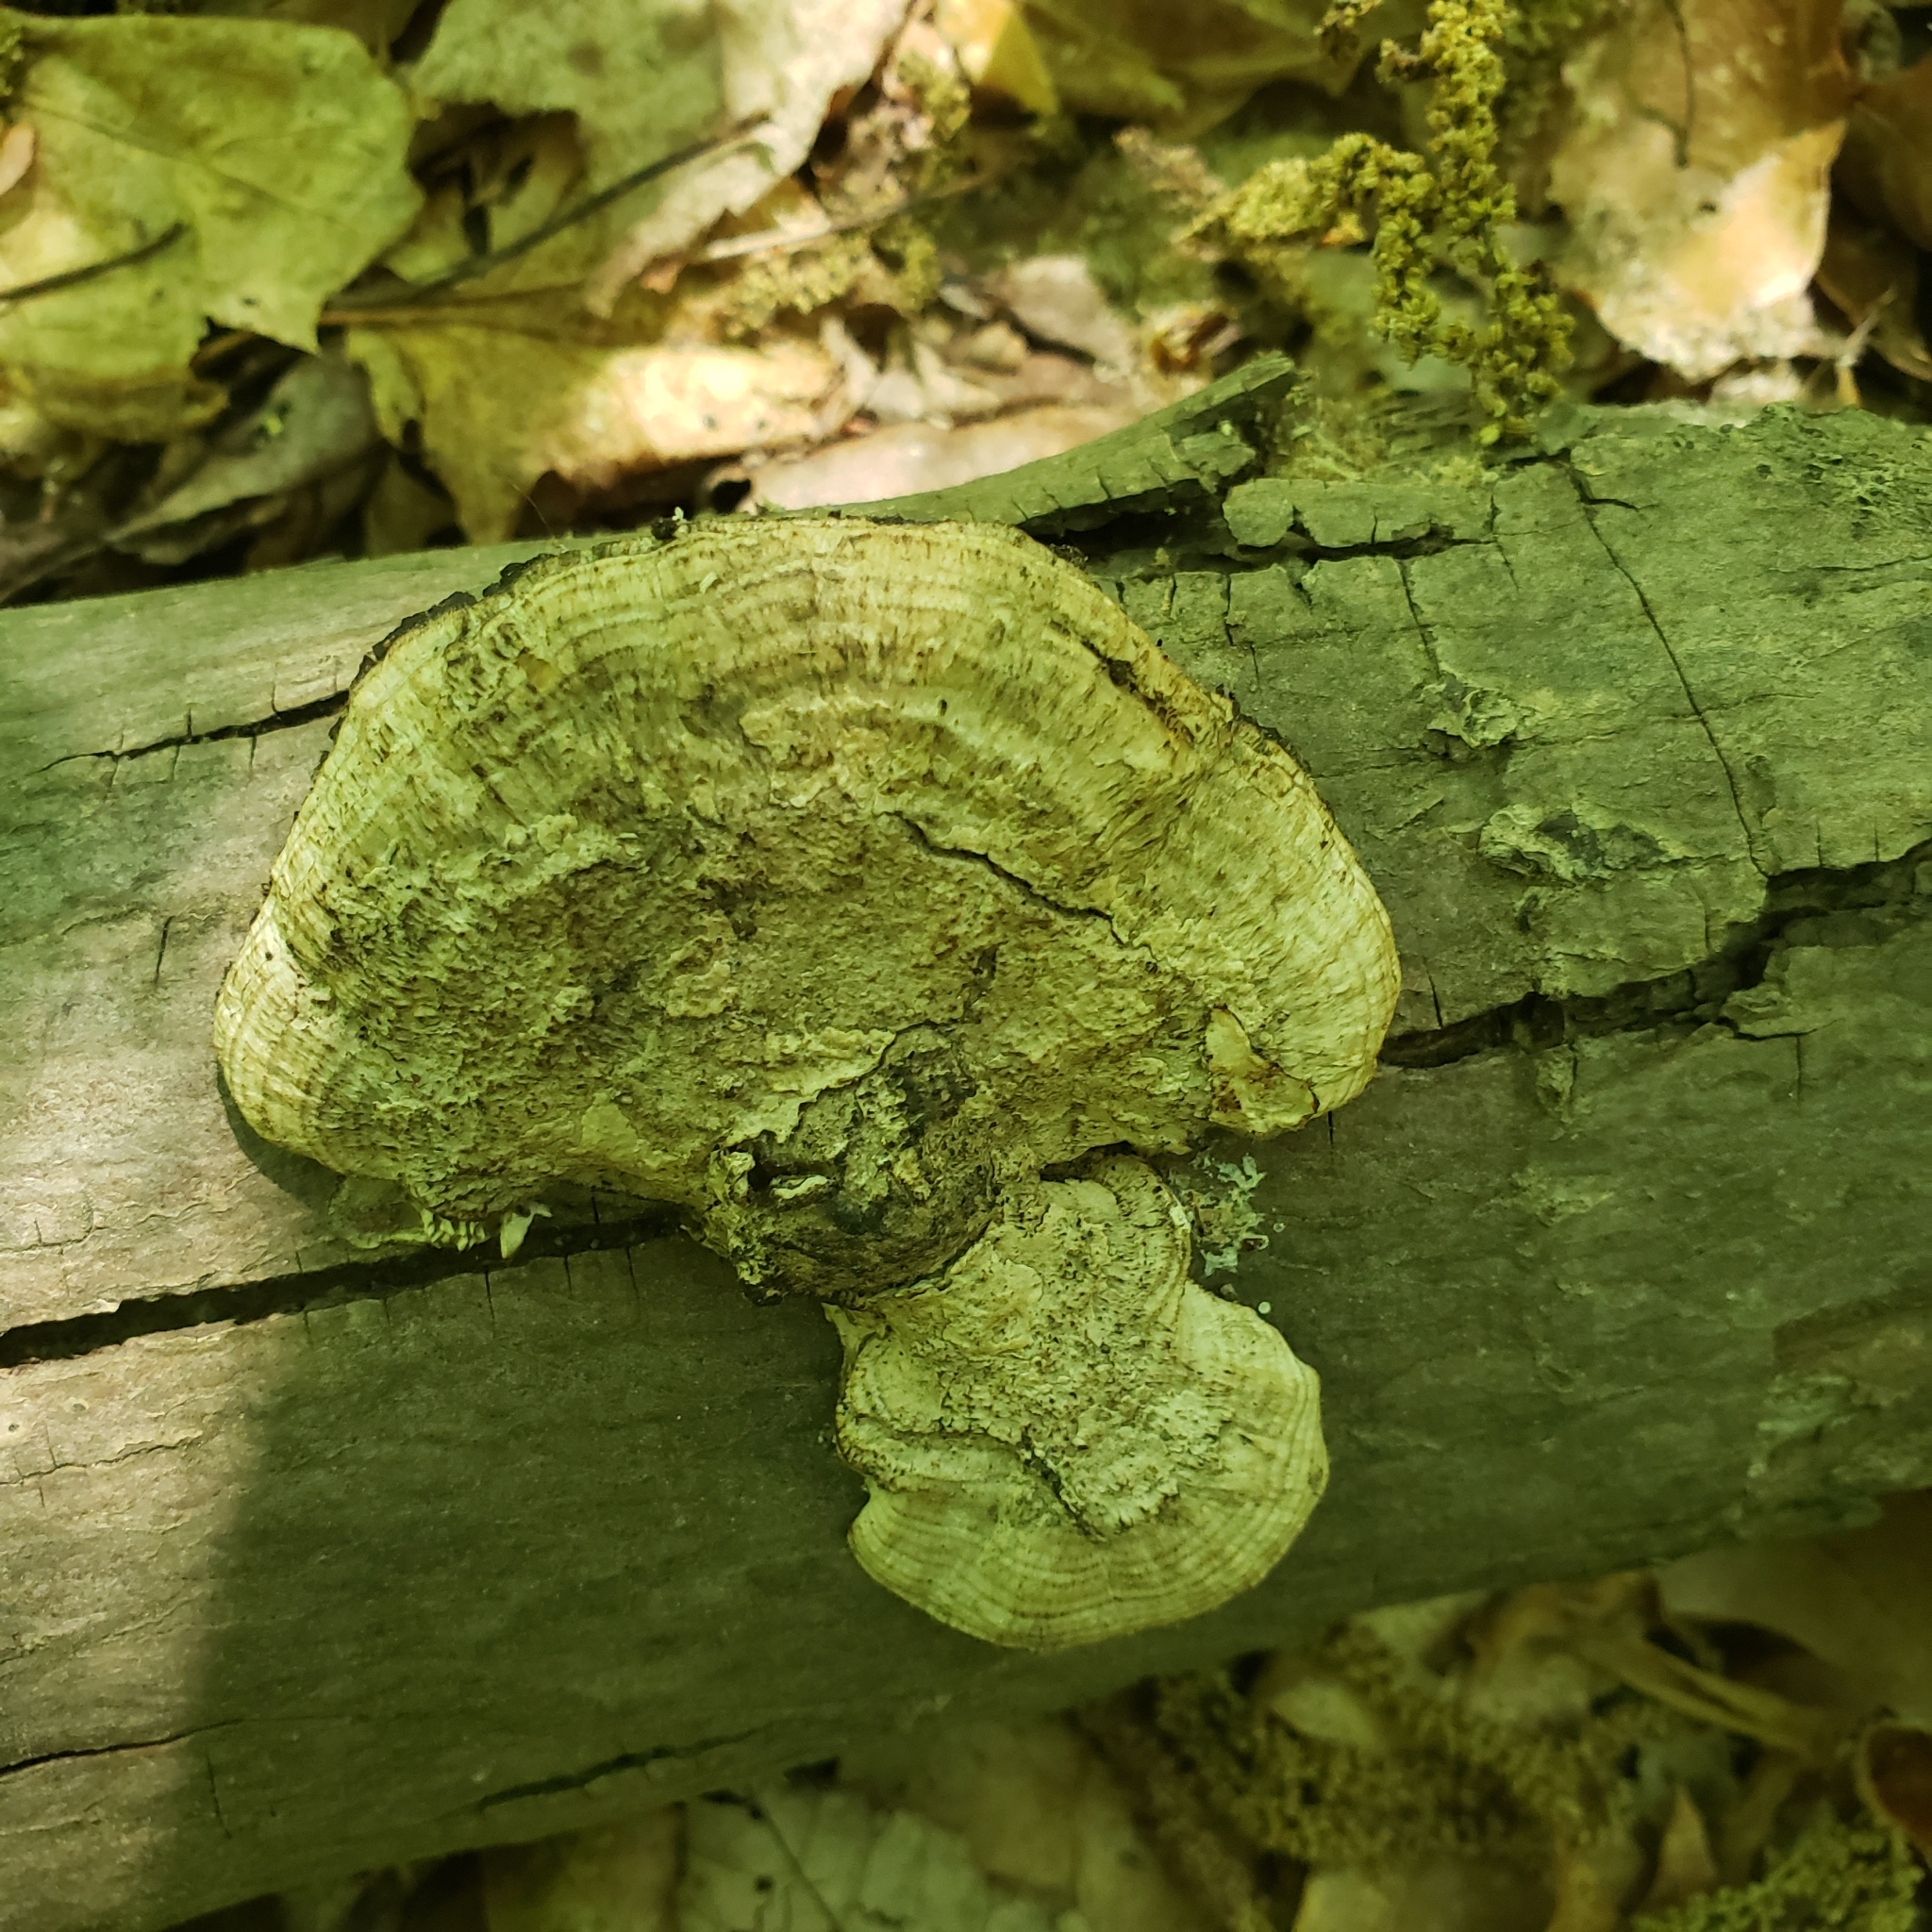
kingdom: Fungi
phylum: Basidiomycota
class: Agaricomycetes
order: Polyporales
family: Polyporaceae
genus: Daedaleopsis
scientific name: Daedaleopsis confragosa
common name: Blushing bracket
